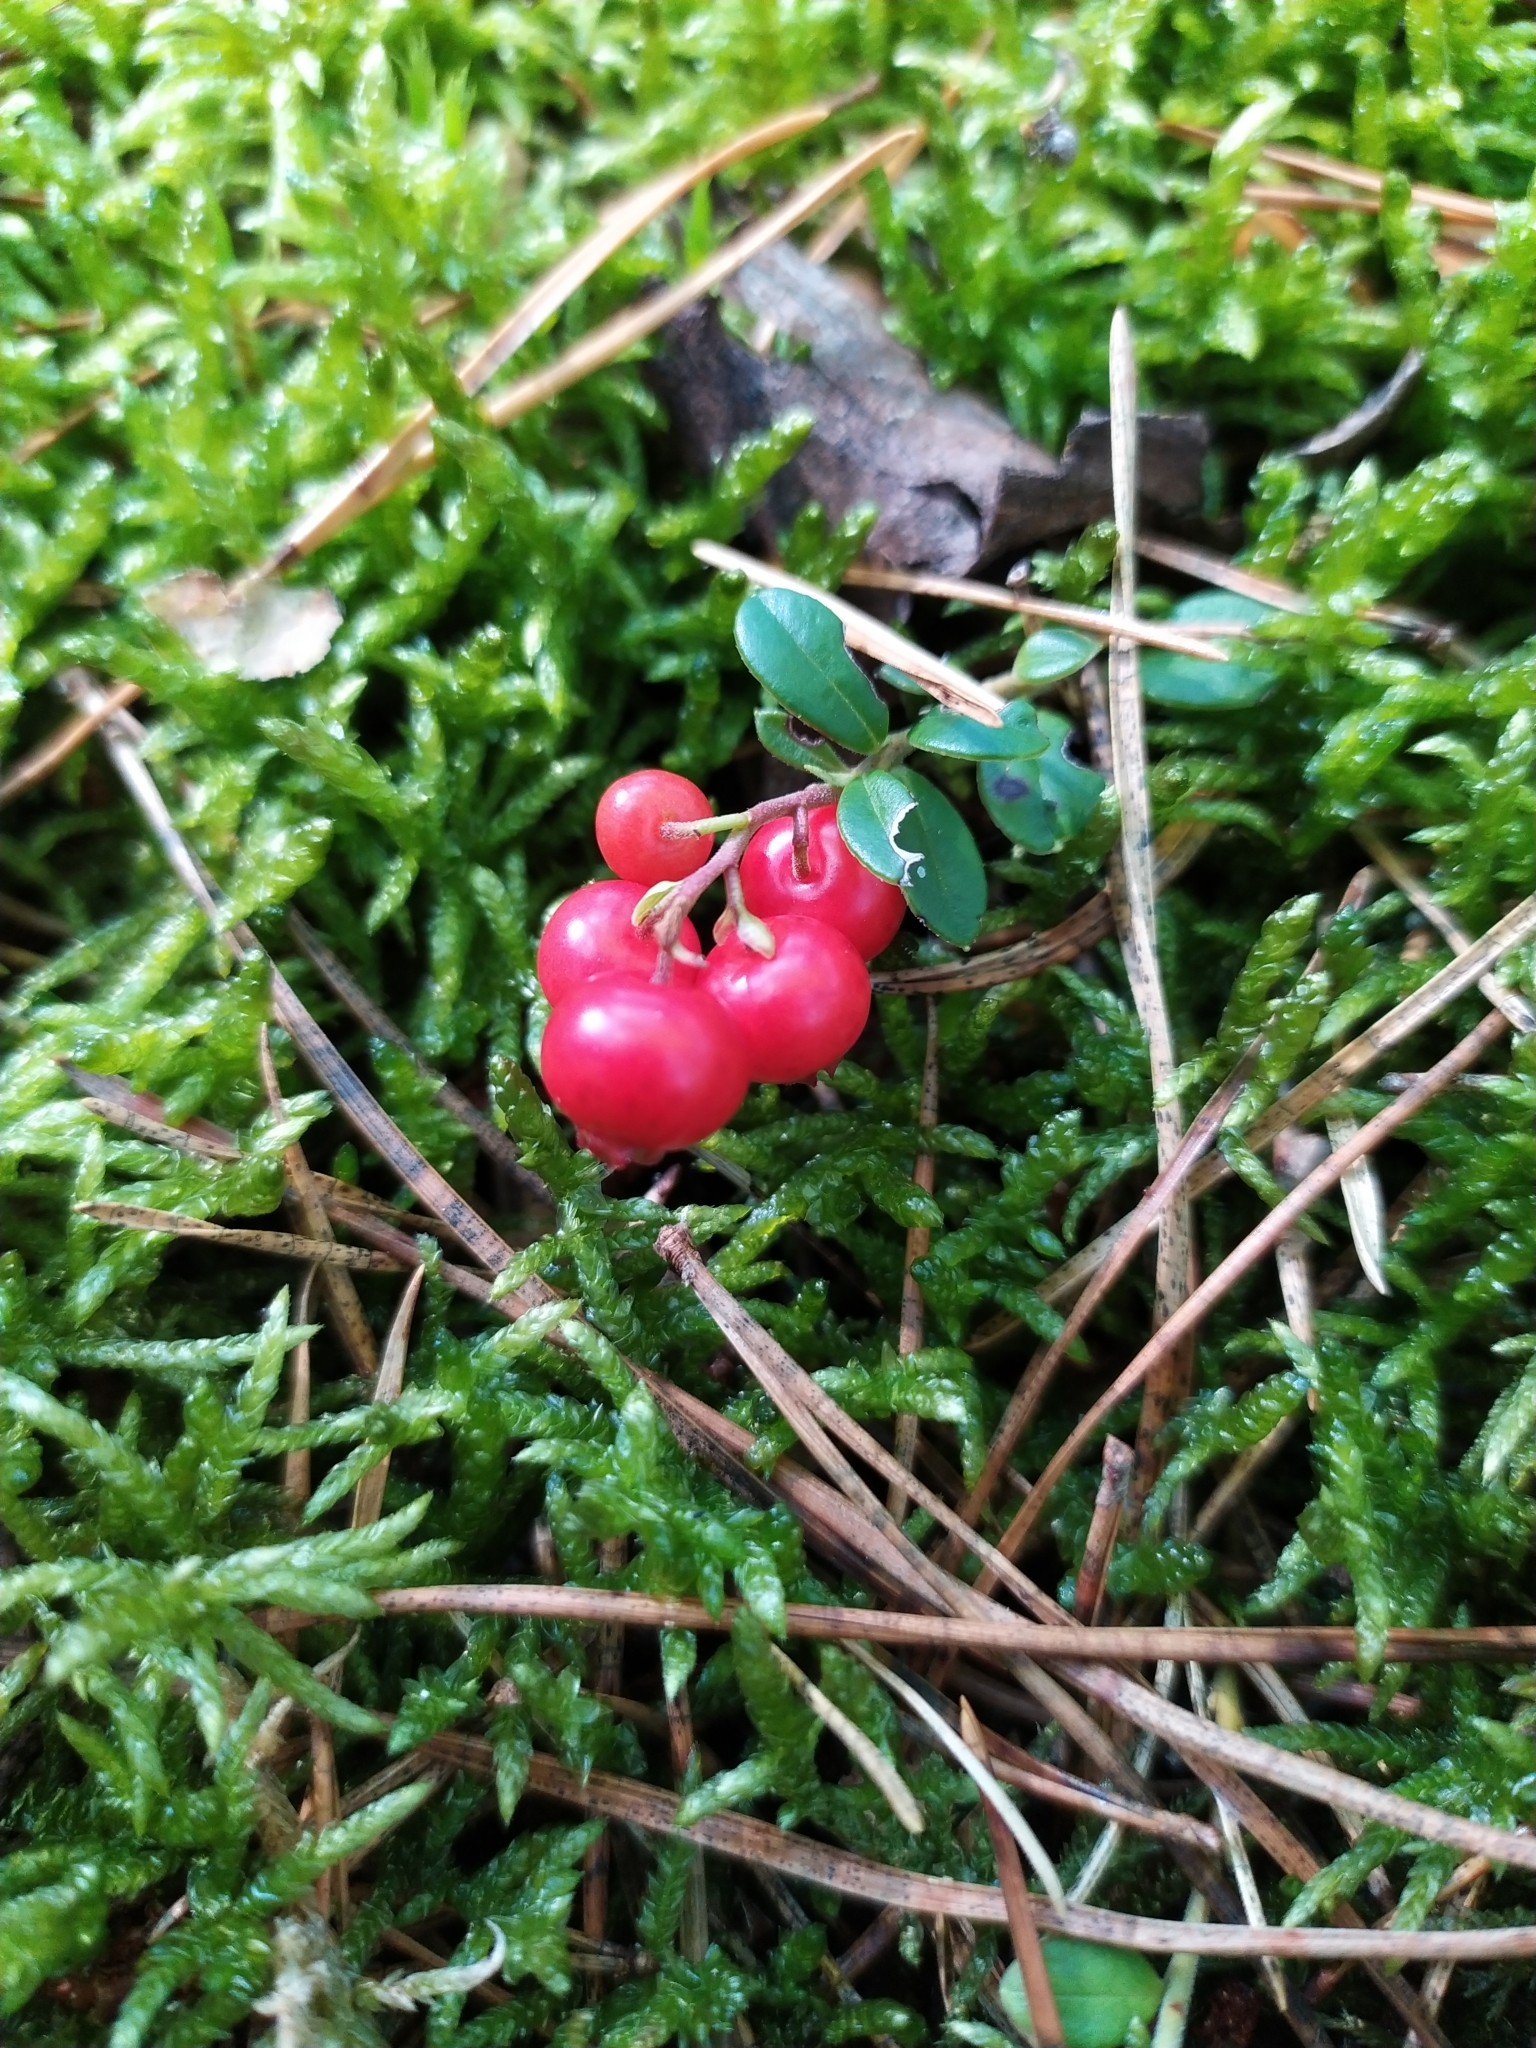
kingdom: Plantae
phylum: Tracheophyta
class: Magnoliopsida
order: Ericales
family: Ericaceae
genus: Vaccinium
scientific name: Vaccinium vitis-idaea
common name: Cowberry
